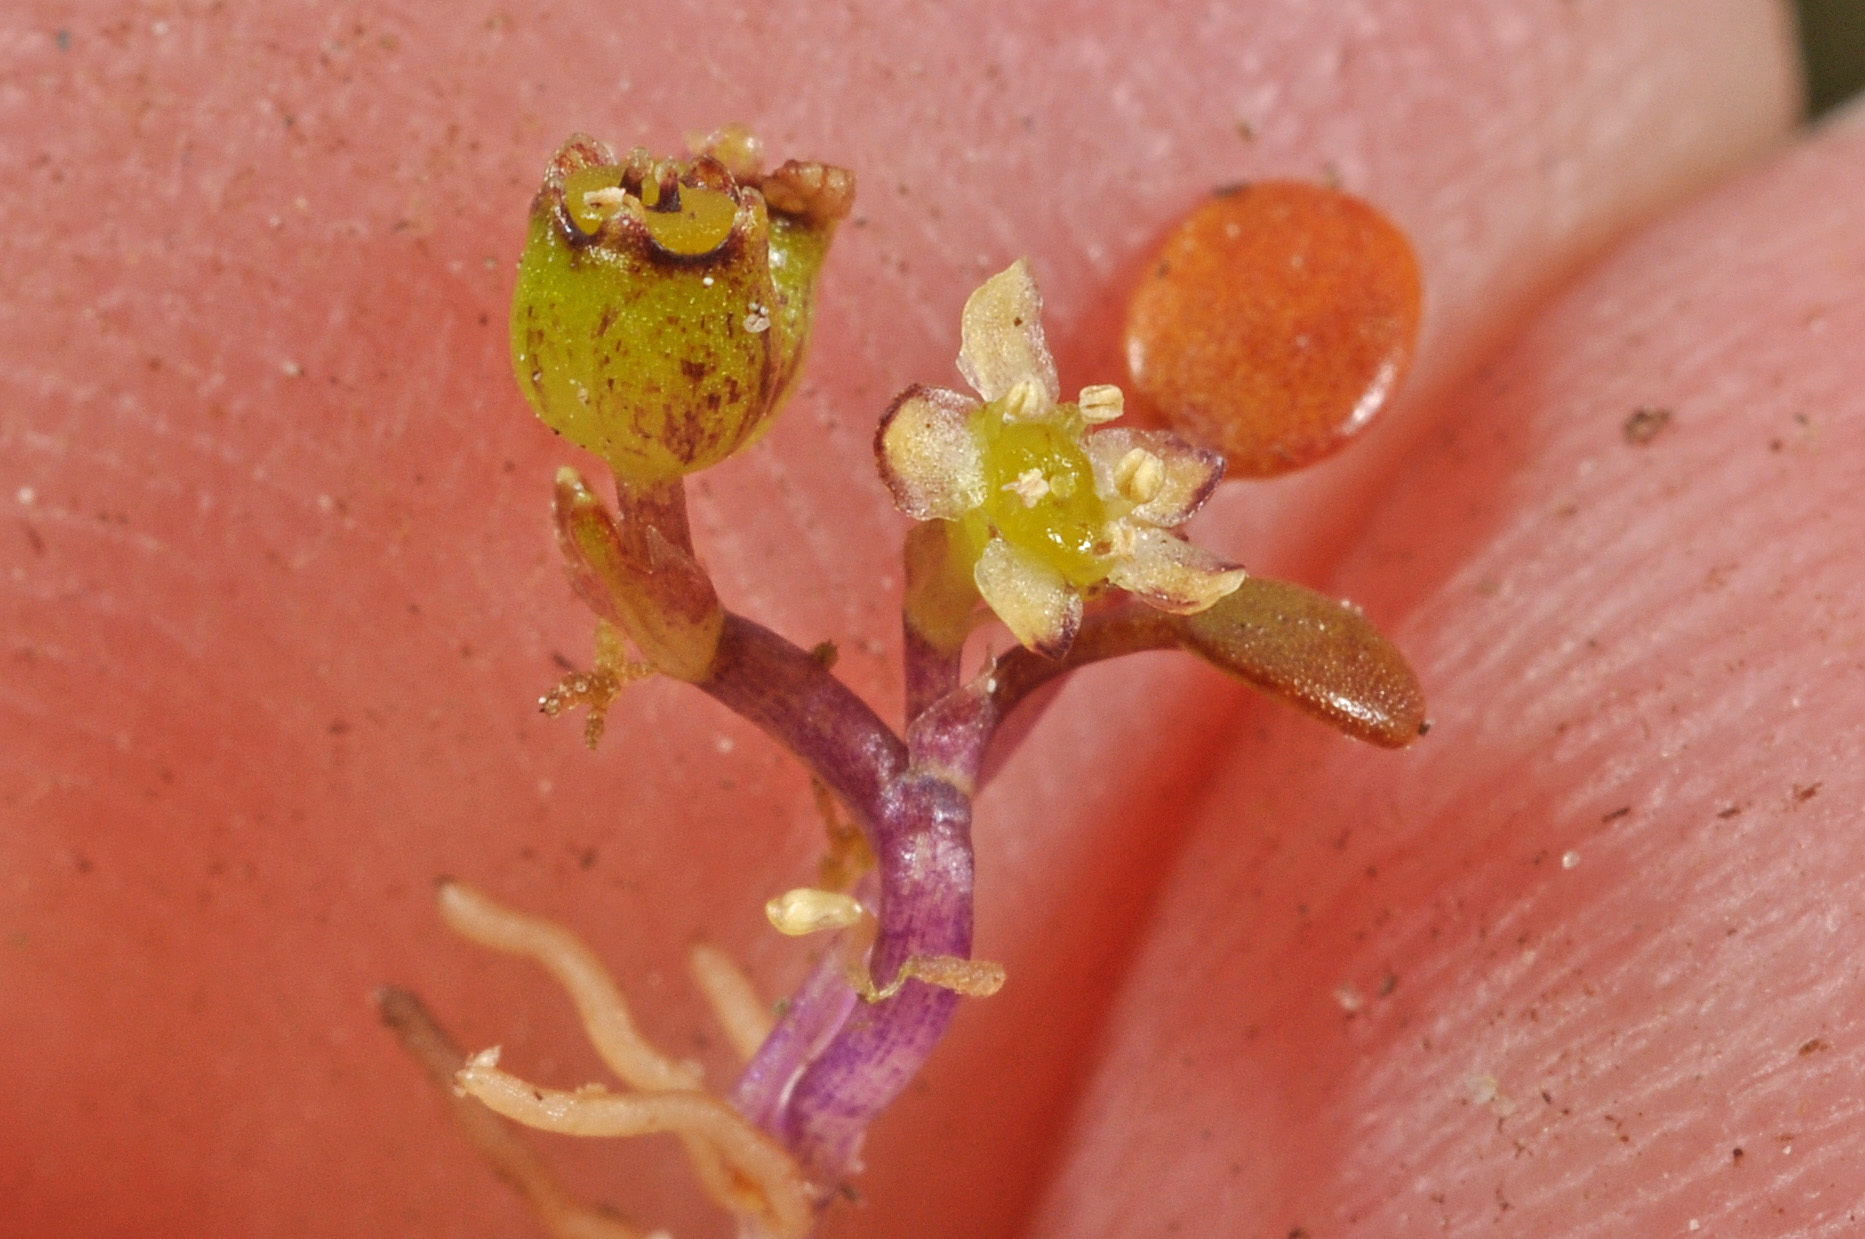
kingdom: Plantae
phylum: Tracheophyta
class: Magnoliopsida
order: Apiales
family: Apiaceae
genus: Azorella
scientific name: Azorella cockaynei
